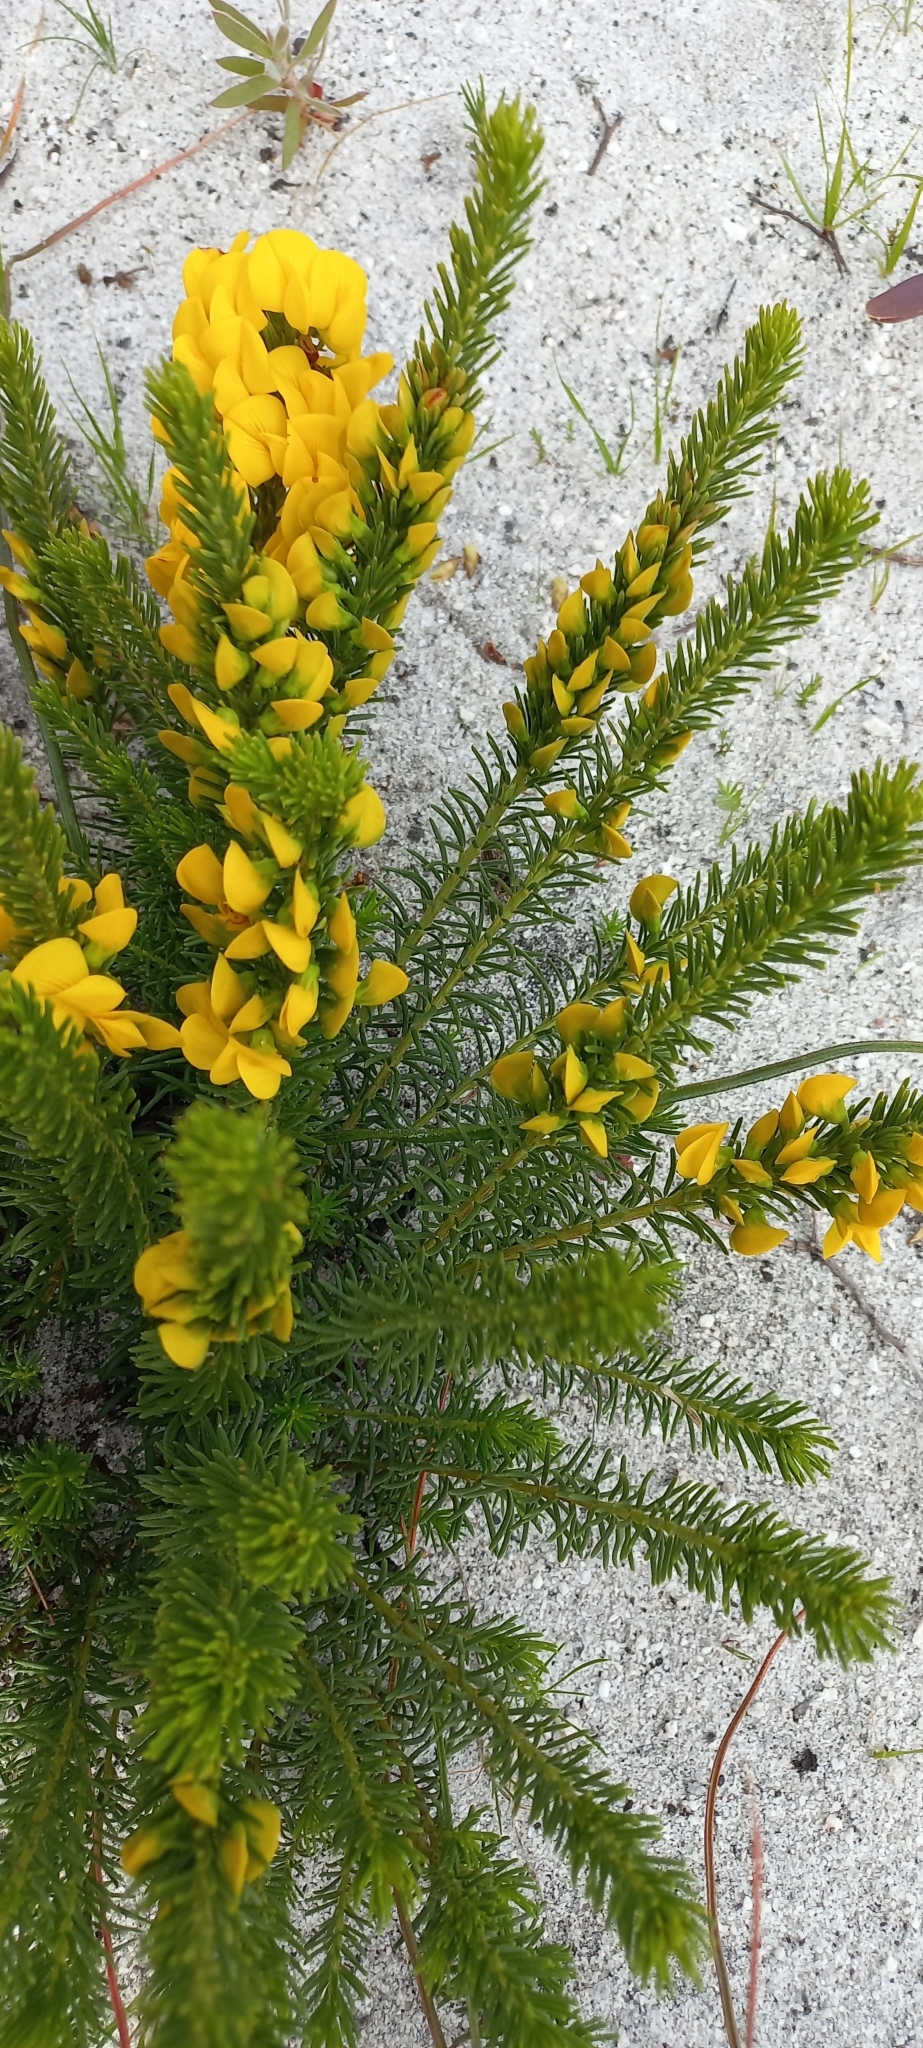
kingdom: Plantae
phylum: Tracheophyta
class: Magnoliopsida
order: Fabales
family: Fabaceae
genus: Cyclopia
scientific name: Cyclopia genistoides
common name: Honeybush tea
